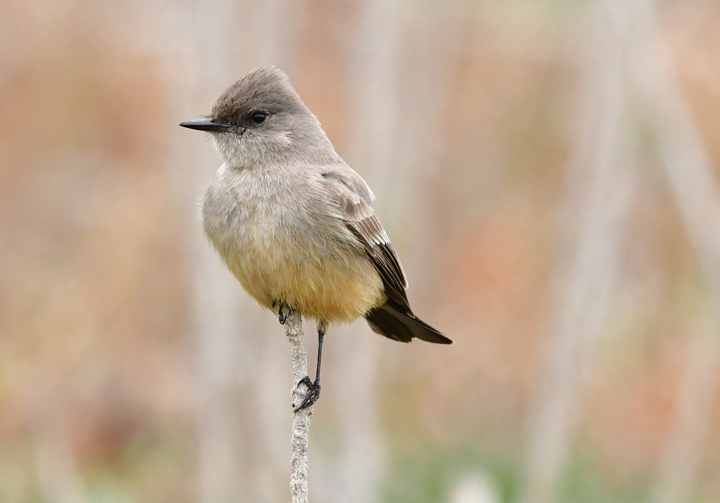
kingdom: Animalia
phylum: Chordata
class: Aves
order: Passeriformes
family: Tyrannidae
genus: Sayornis
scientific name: Sayornis saya
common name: Say's phoebe
